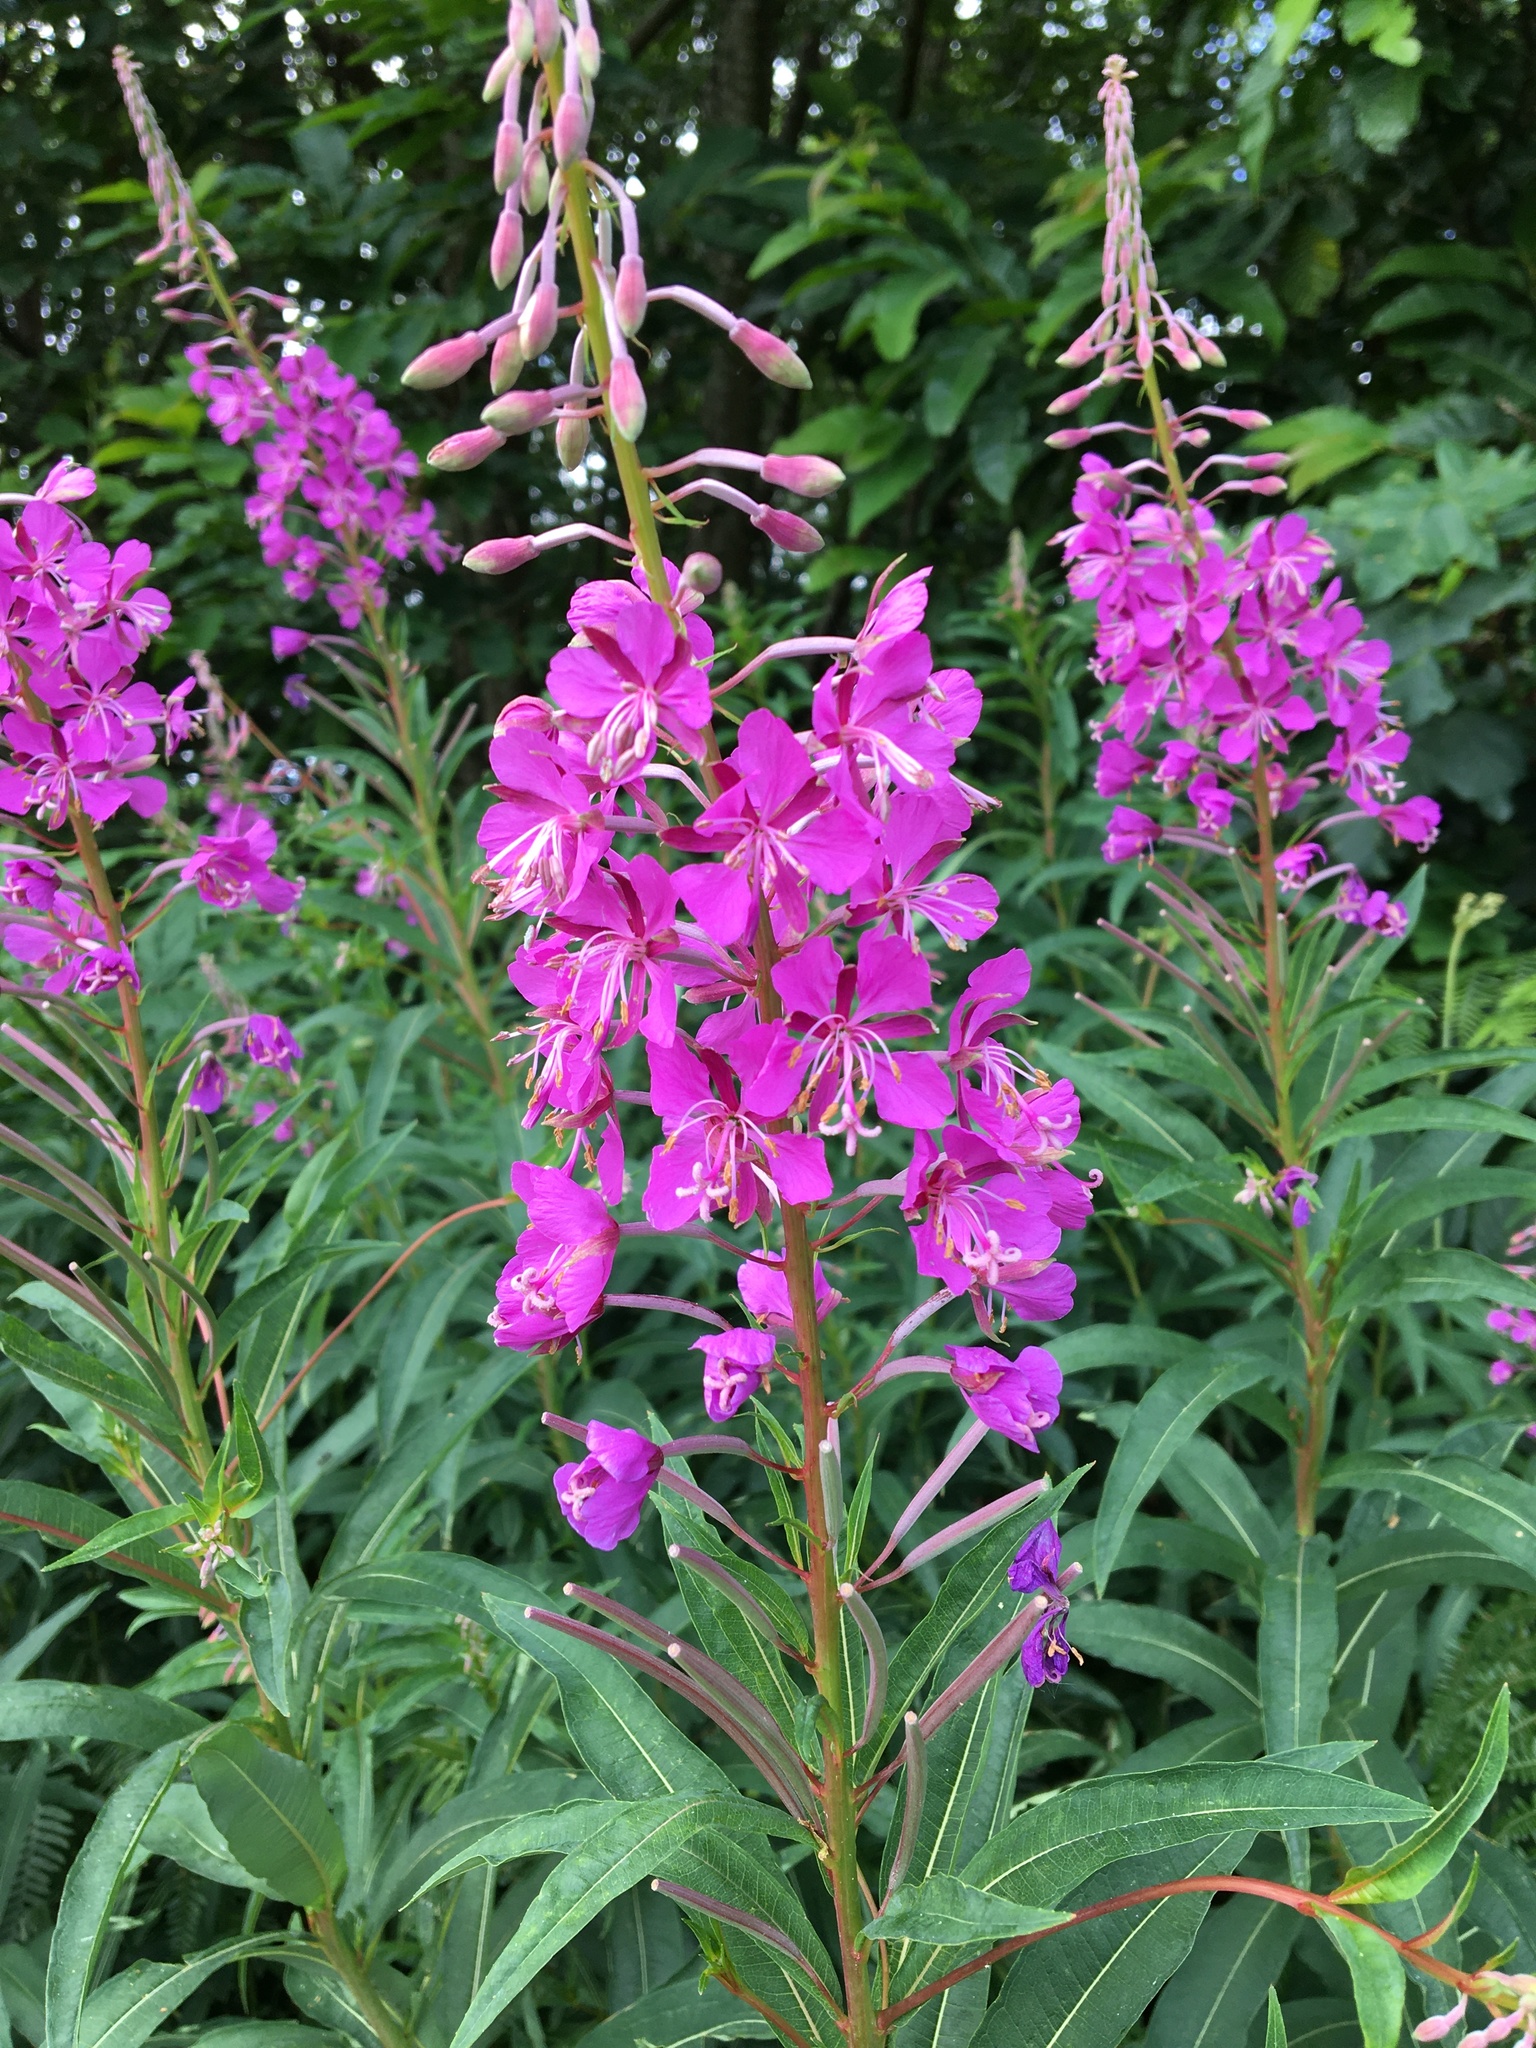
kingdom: Plantae
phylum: Tracheophyta
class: Magnoliopsida
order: Myrtales
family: Onagraceae
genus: Chamaenerion
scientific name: Chamaenerion angustifolium
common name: Fireweed
